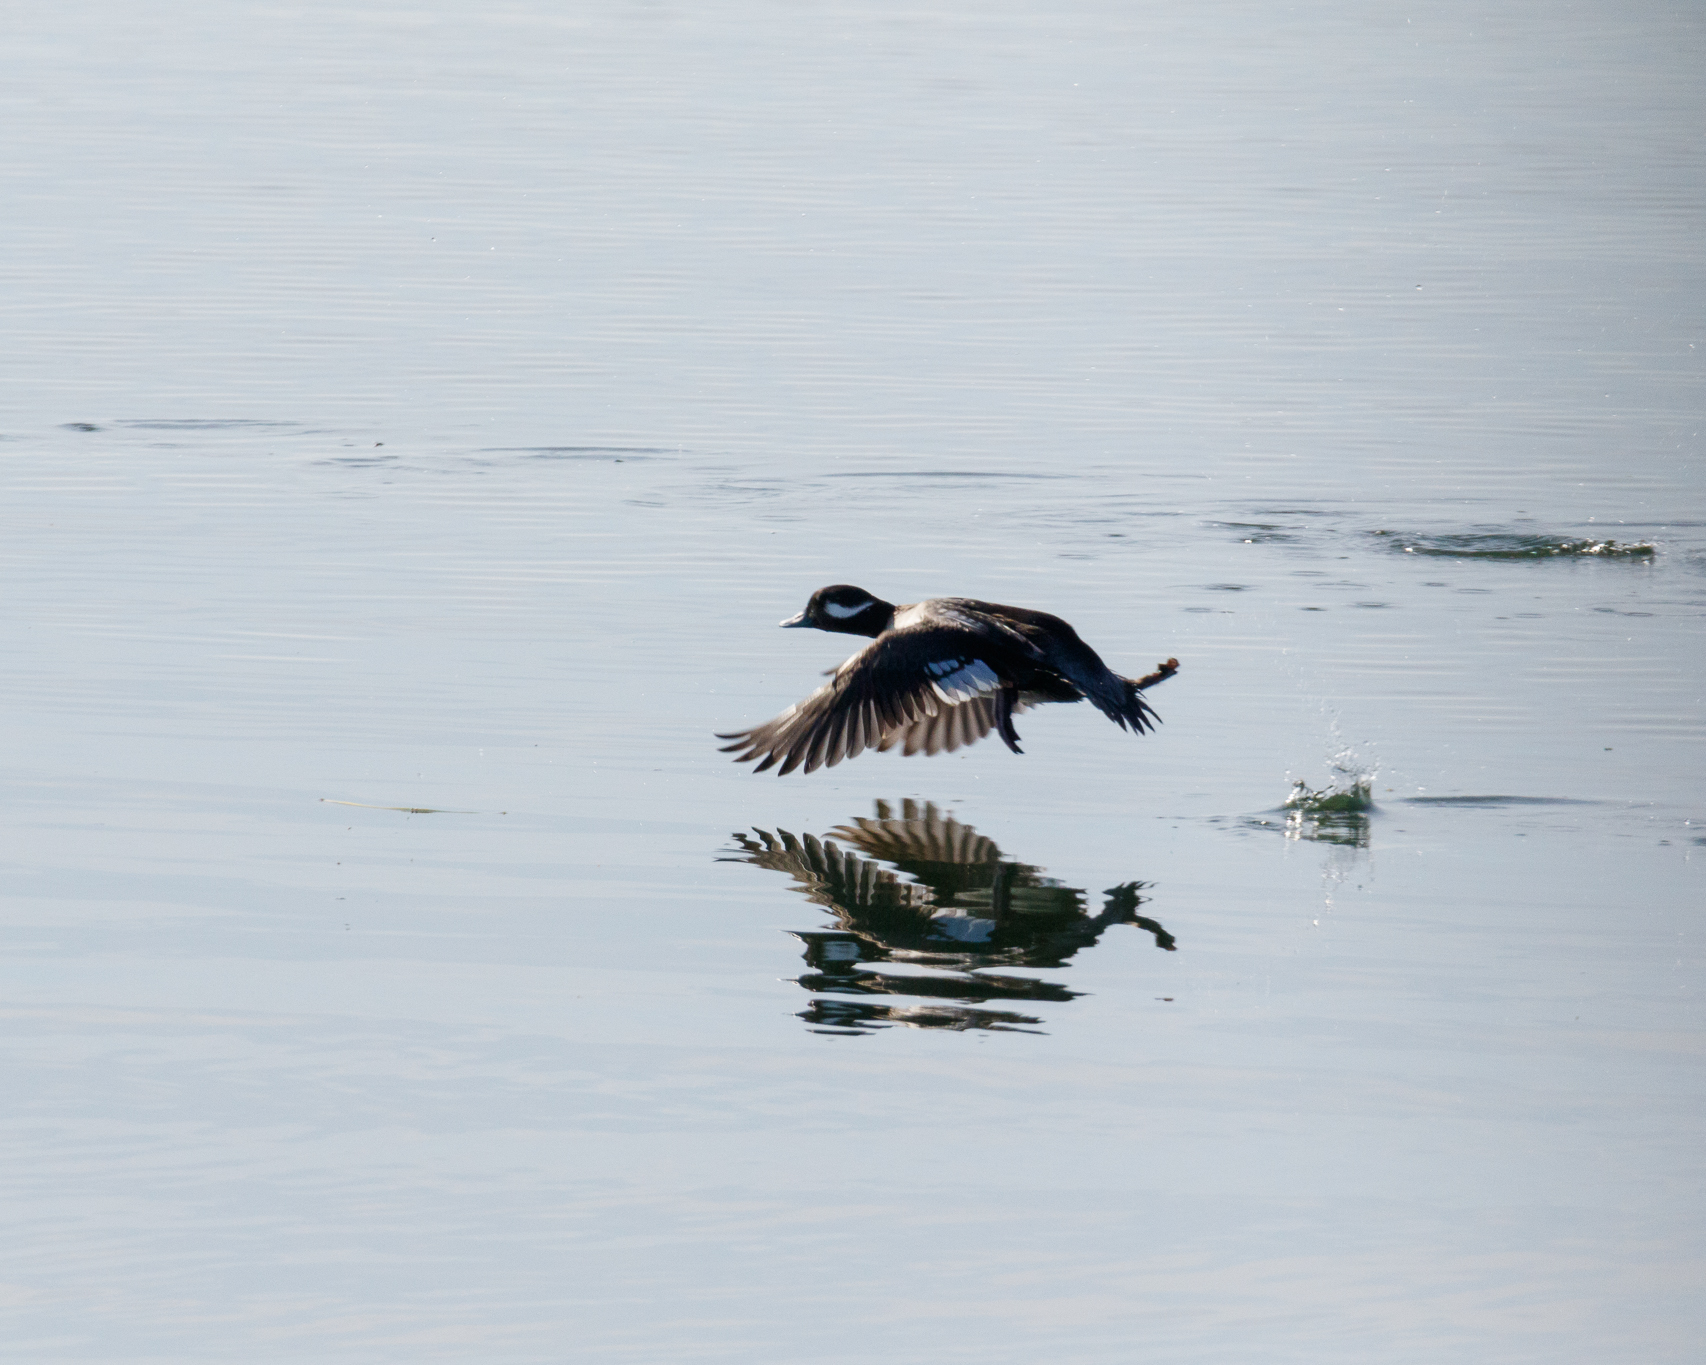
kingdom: Animalia
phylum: Chordata
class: Aves
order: Anseriformes
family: Anatidae
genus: Bucephala
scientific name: Bucephala albeola
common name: Bufflehead
